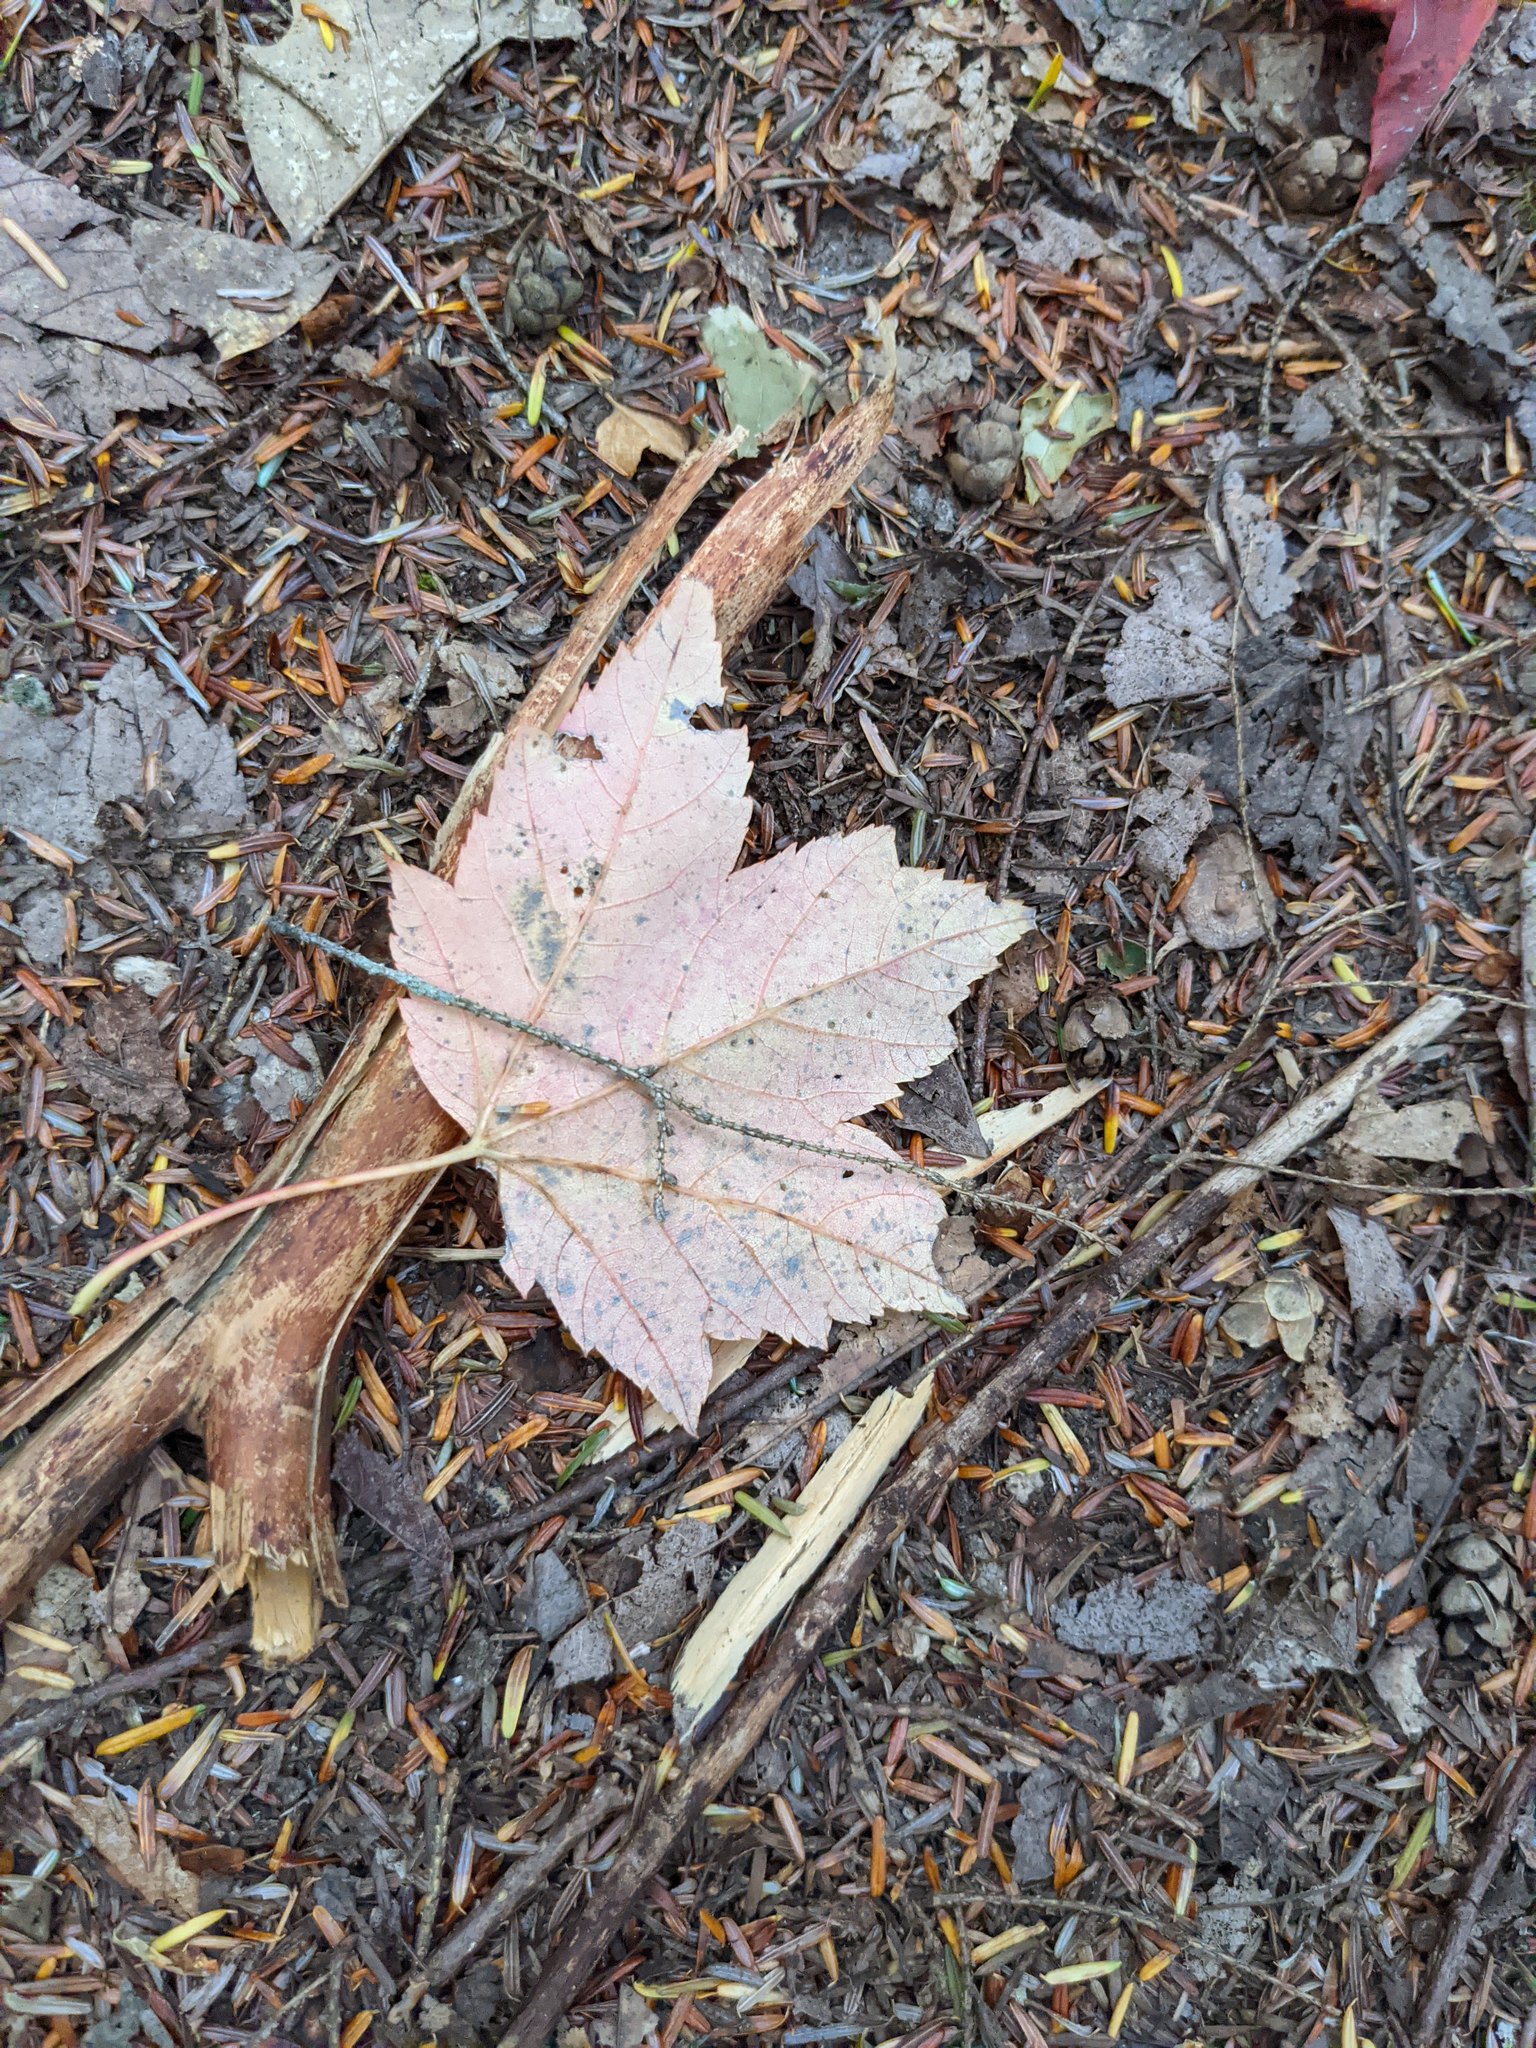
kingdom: Plantae
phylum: Tracheophyta
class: Magnoliopsida
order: Sapindales
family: Sapindaceae
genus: Acer
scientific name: Acer rubrum
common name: Red maple
